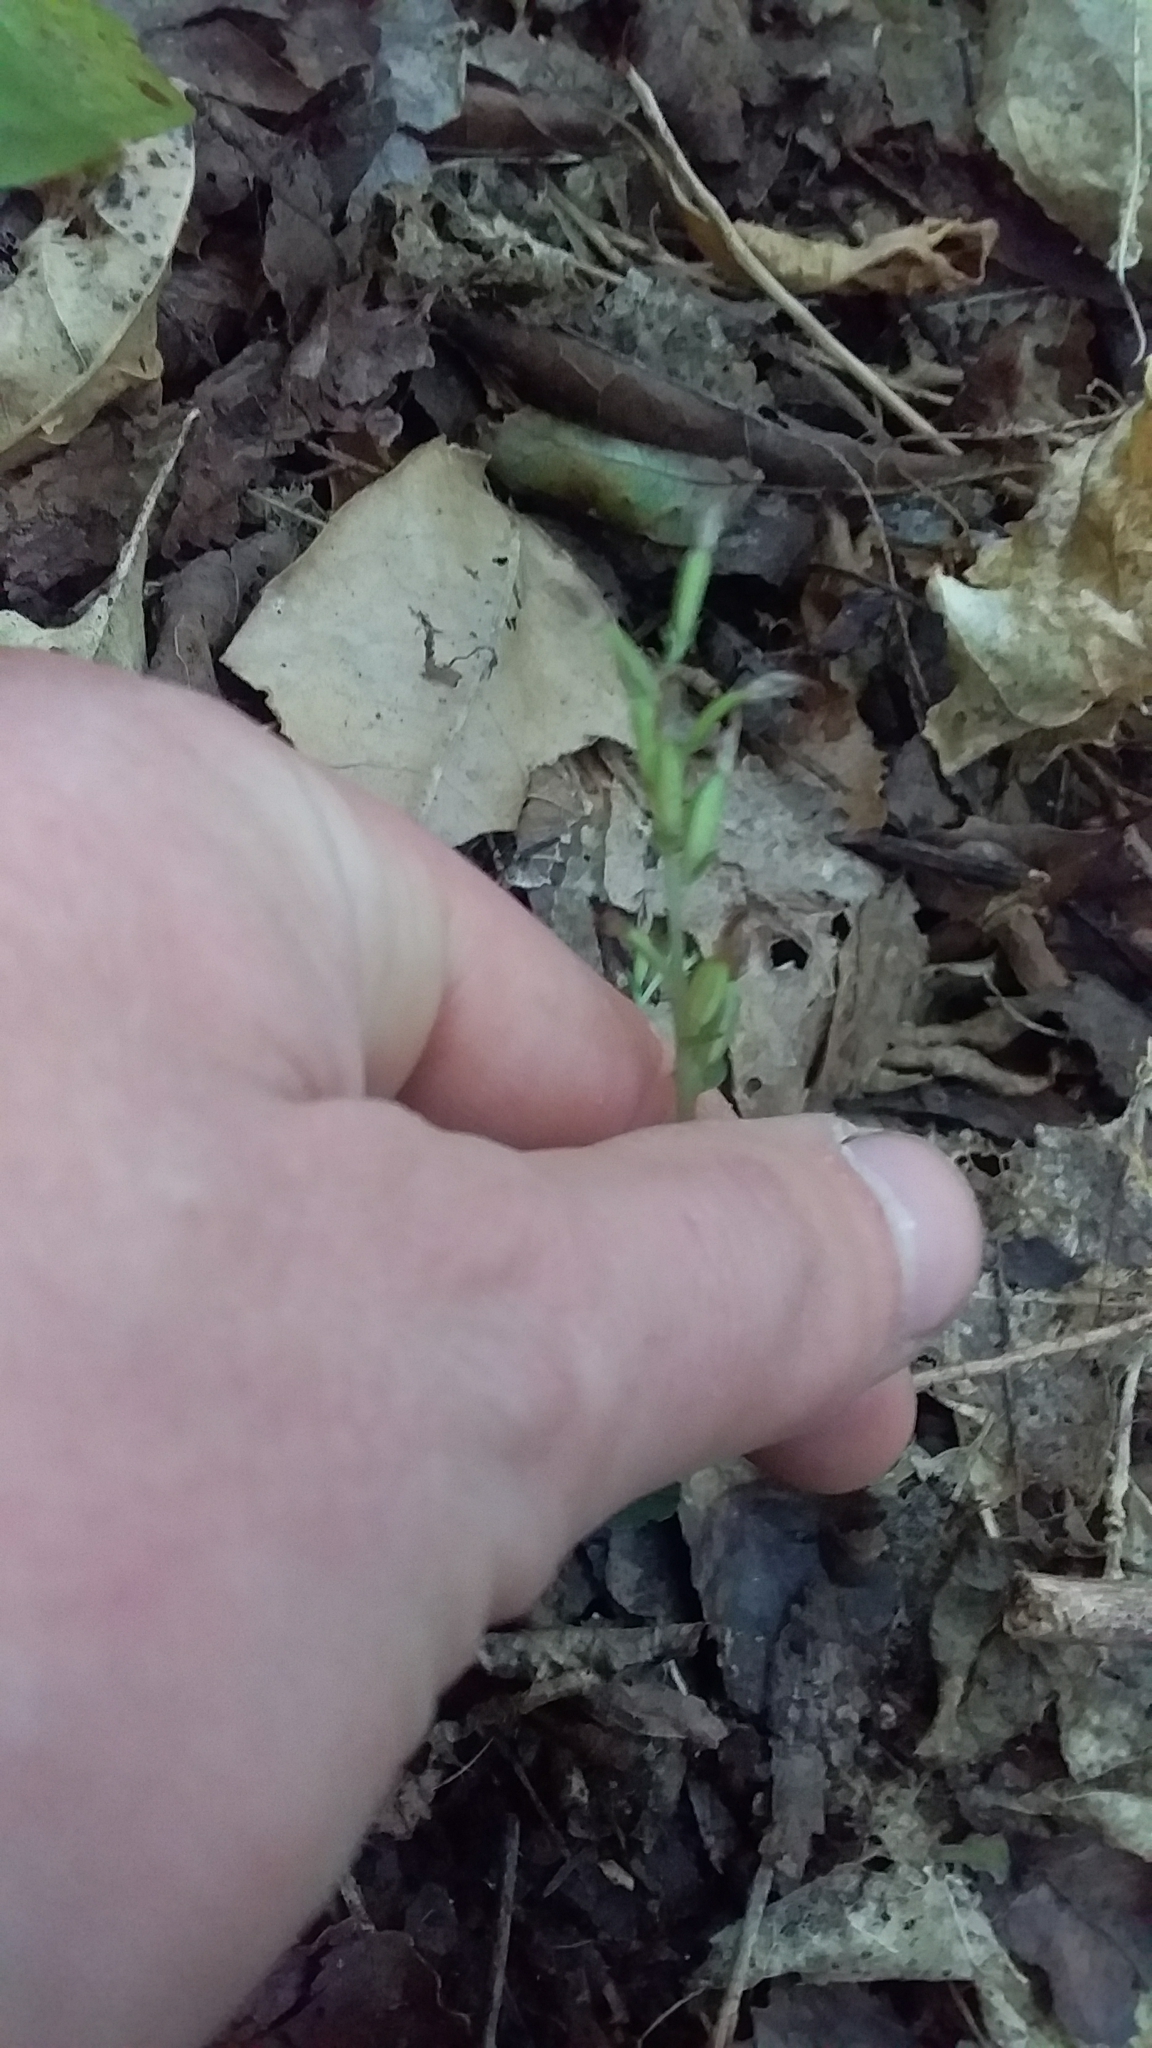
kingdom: Plantae
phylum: Tracheophyta
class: Liliopsida
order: Asparagales
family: Orchidaceae
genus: Acianthus
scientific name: Acianthus sinclairii
